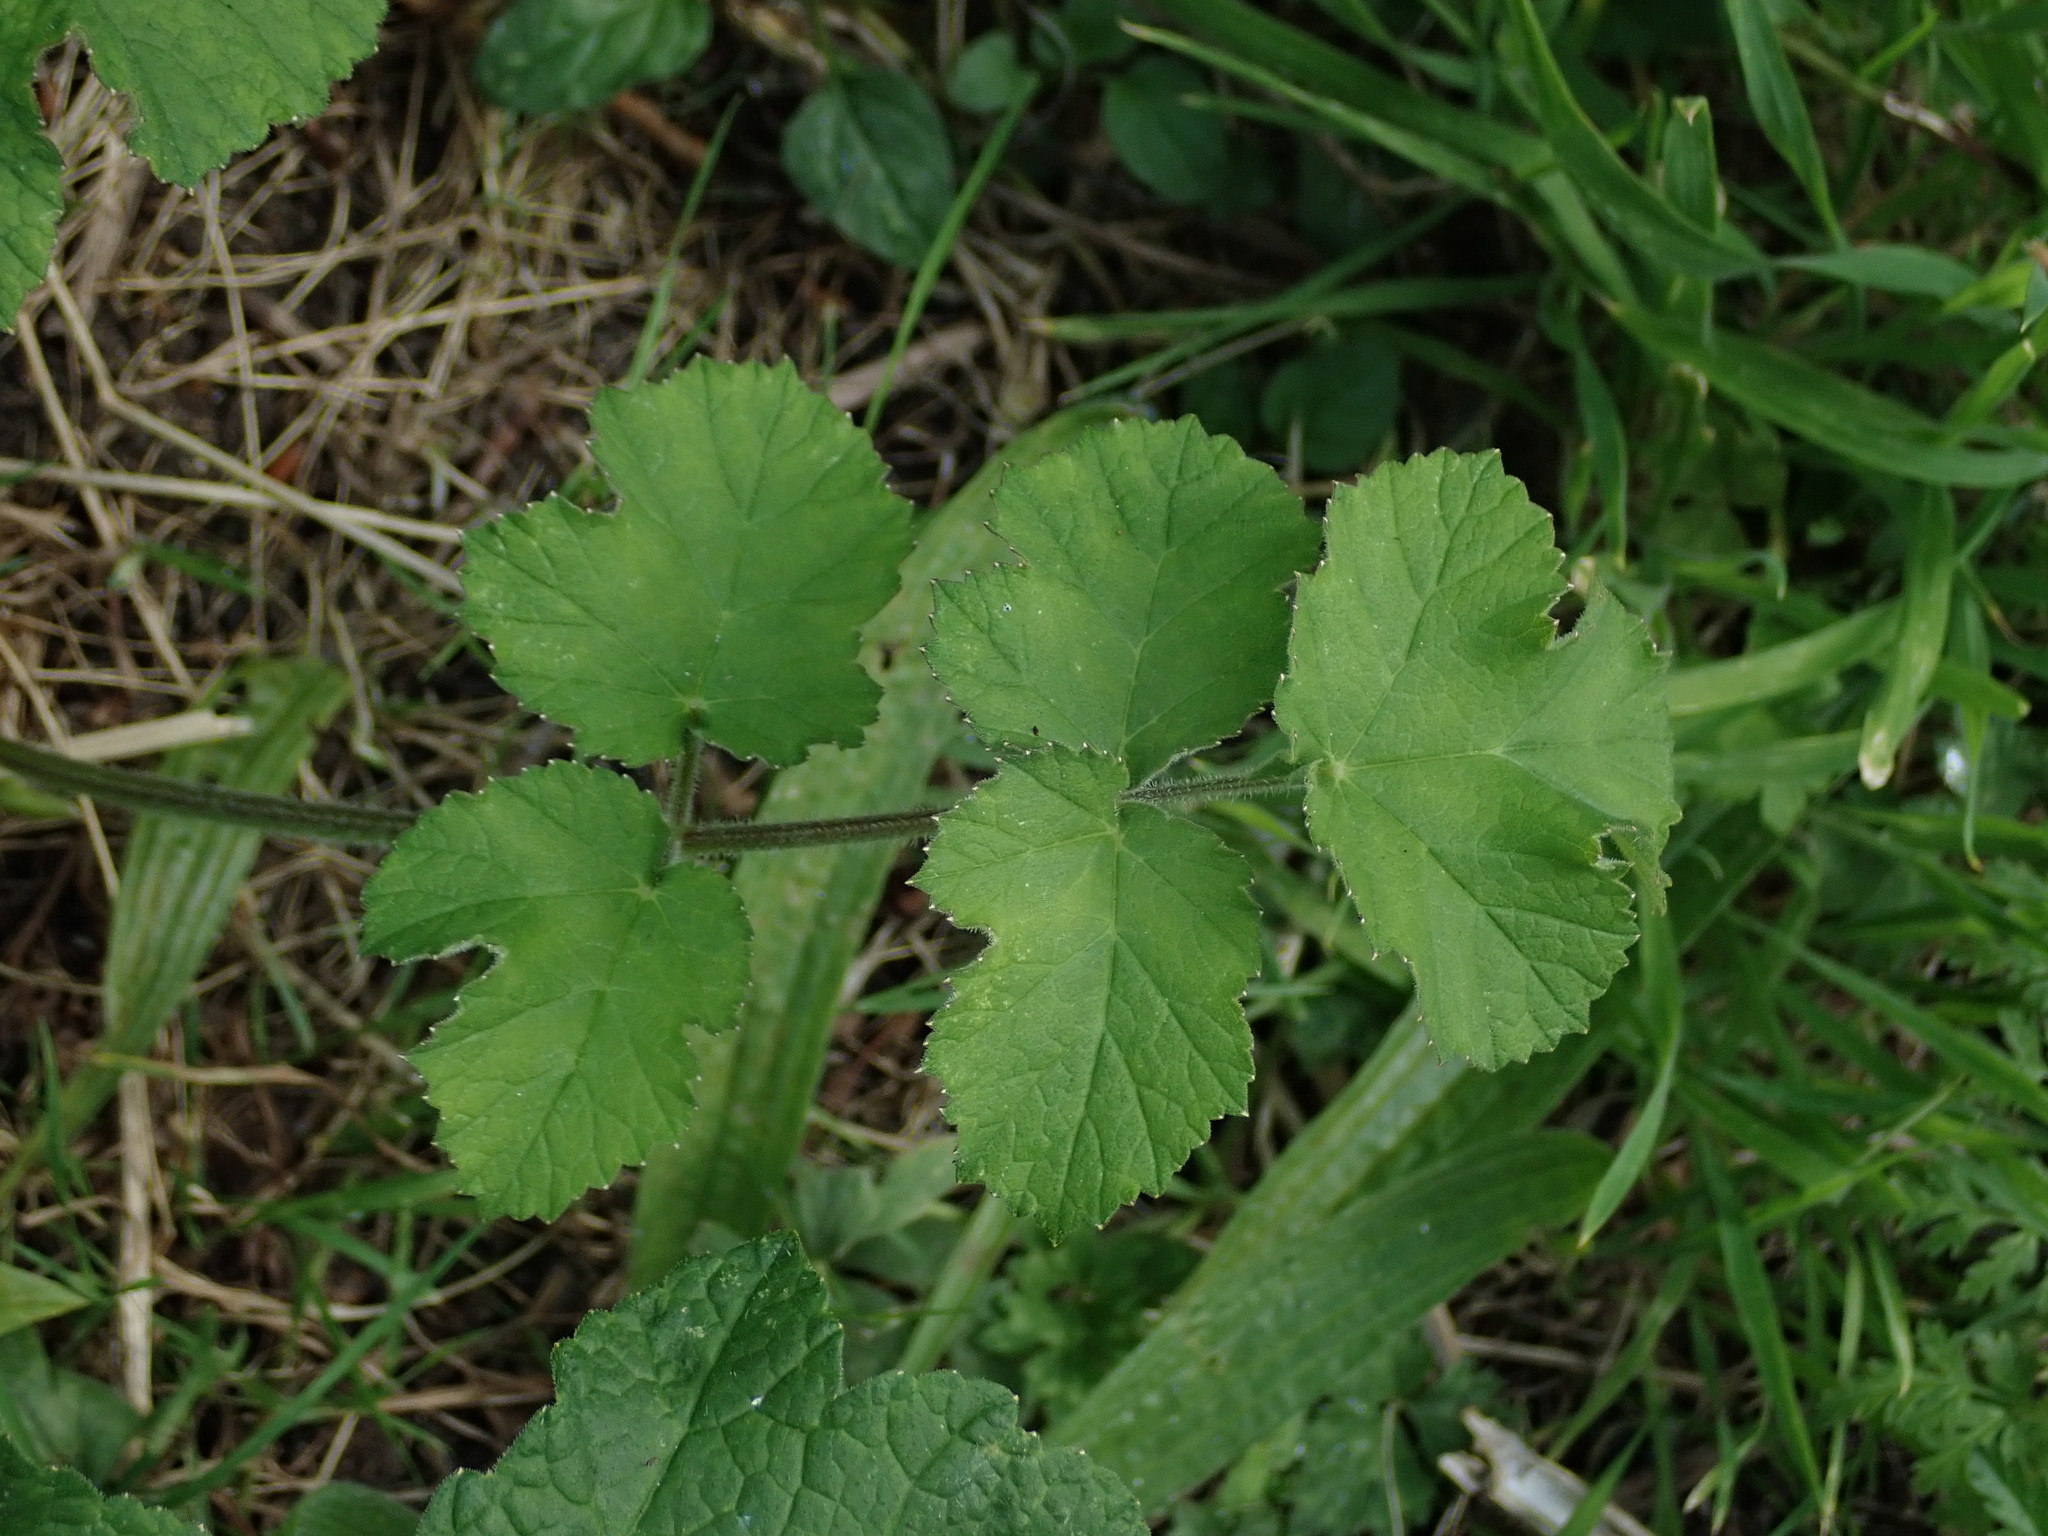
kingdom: Plantae
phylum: Tracheophyta
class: Magnoliopsida
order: Apiales
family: Apiaceae
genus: Heracleum
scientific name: Heracleum sphondylium
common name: Hogweed
